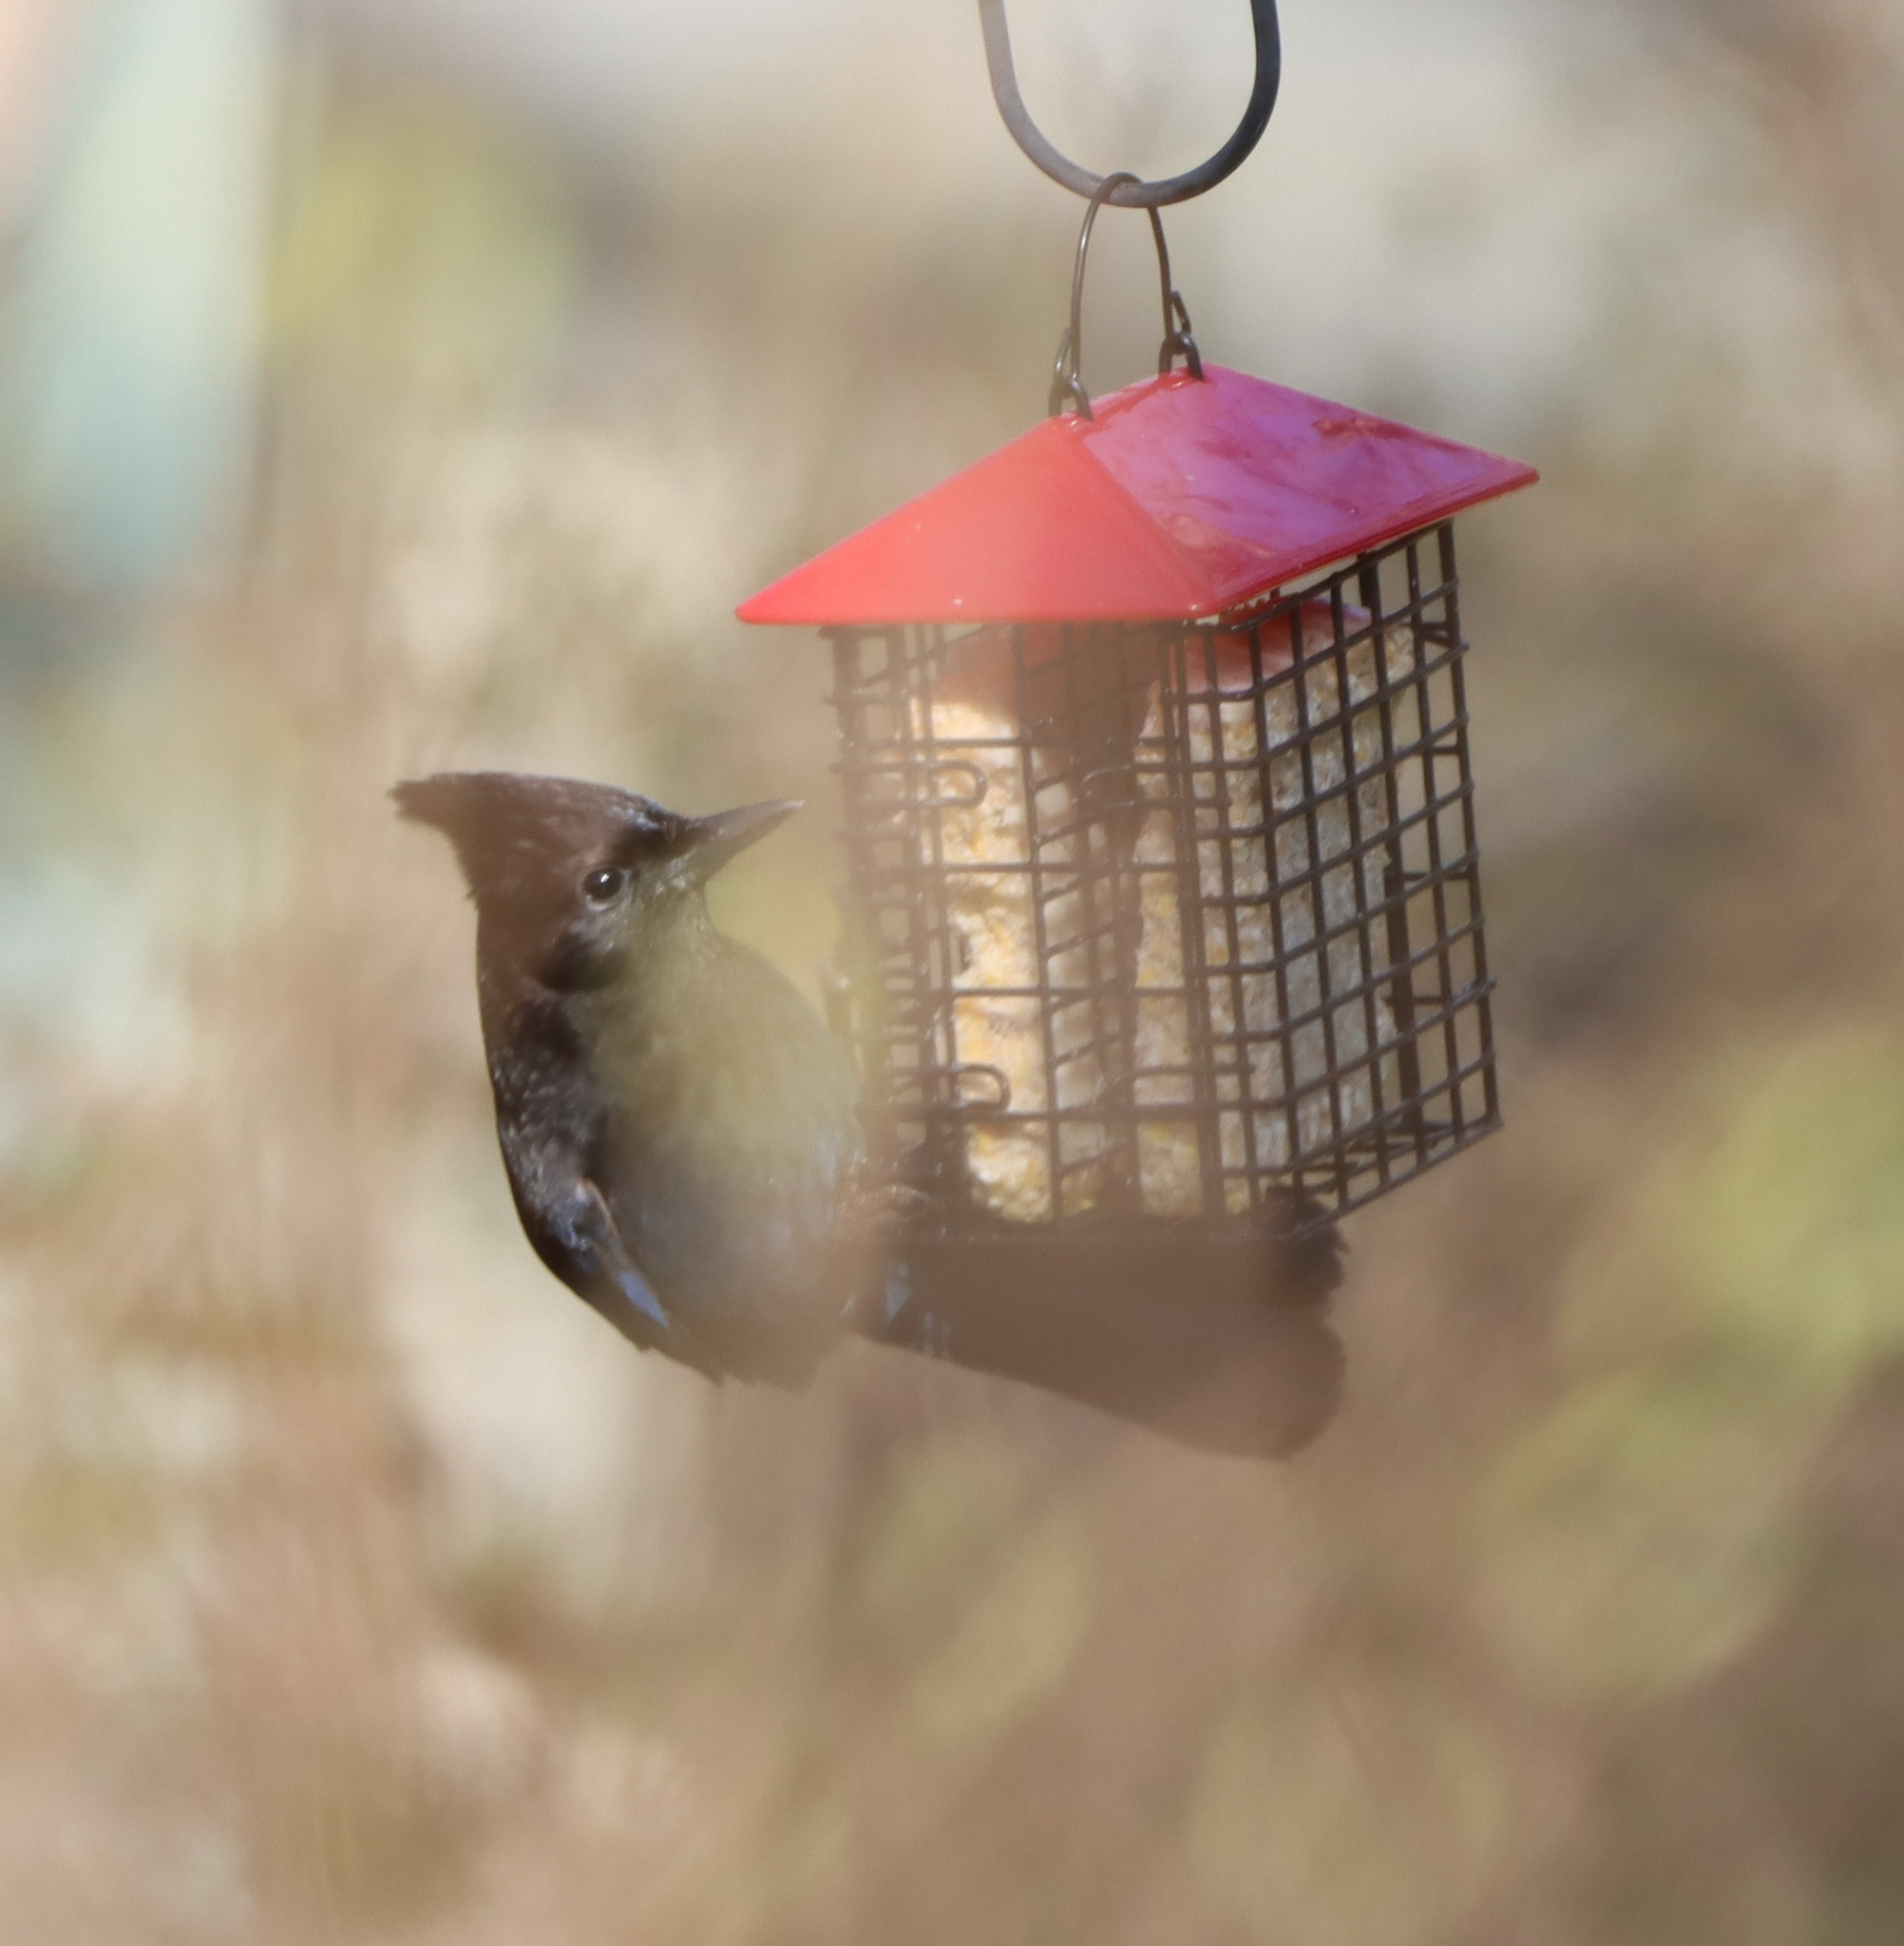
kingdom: Animalia
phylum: Chordata
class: Aves
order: Passeriformes
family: Corvidae
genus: Cyanocitta
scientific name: Cyanocitta stelleri
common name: Steller's jay
